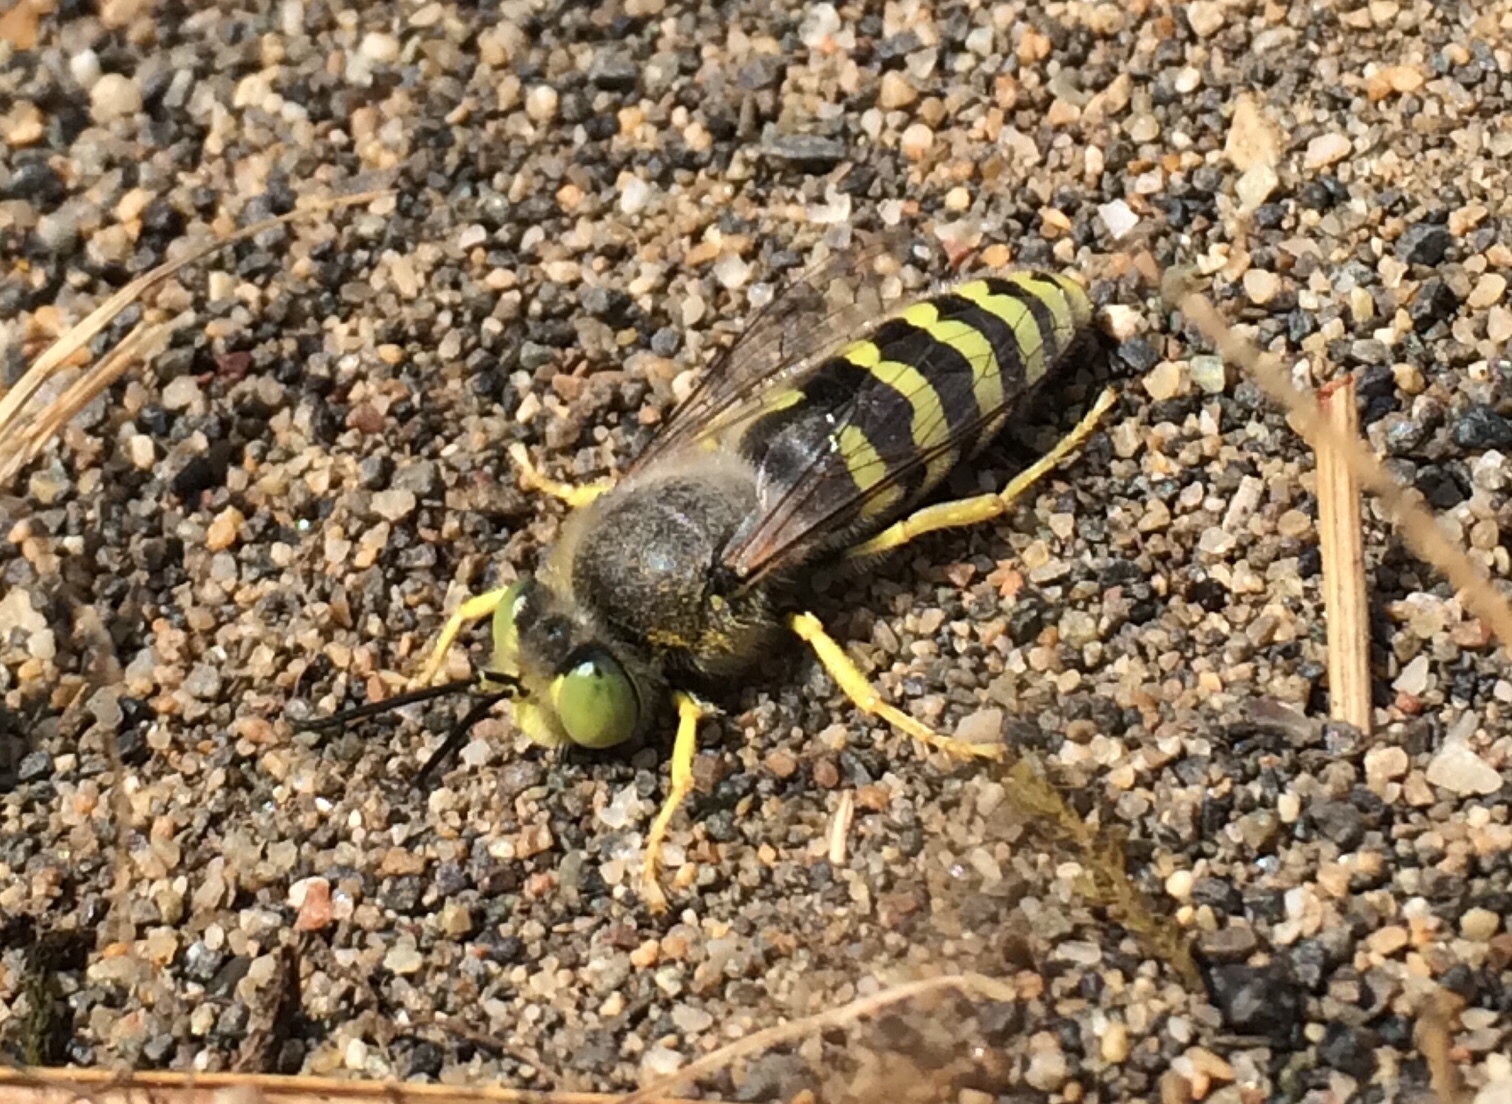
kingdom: Animalia
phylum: Arthropoda
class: Insecta
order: Hymenoptera
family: Crabronidae
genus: Bembix
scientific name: Bembix americana
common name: American sand wasp
